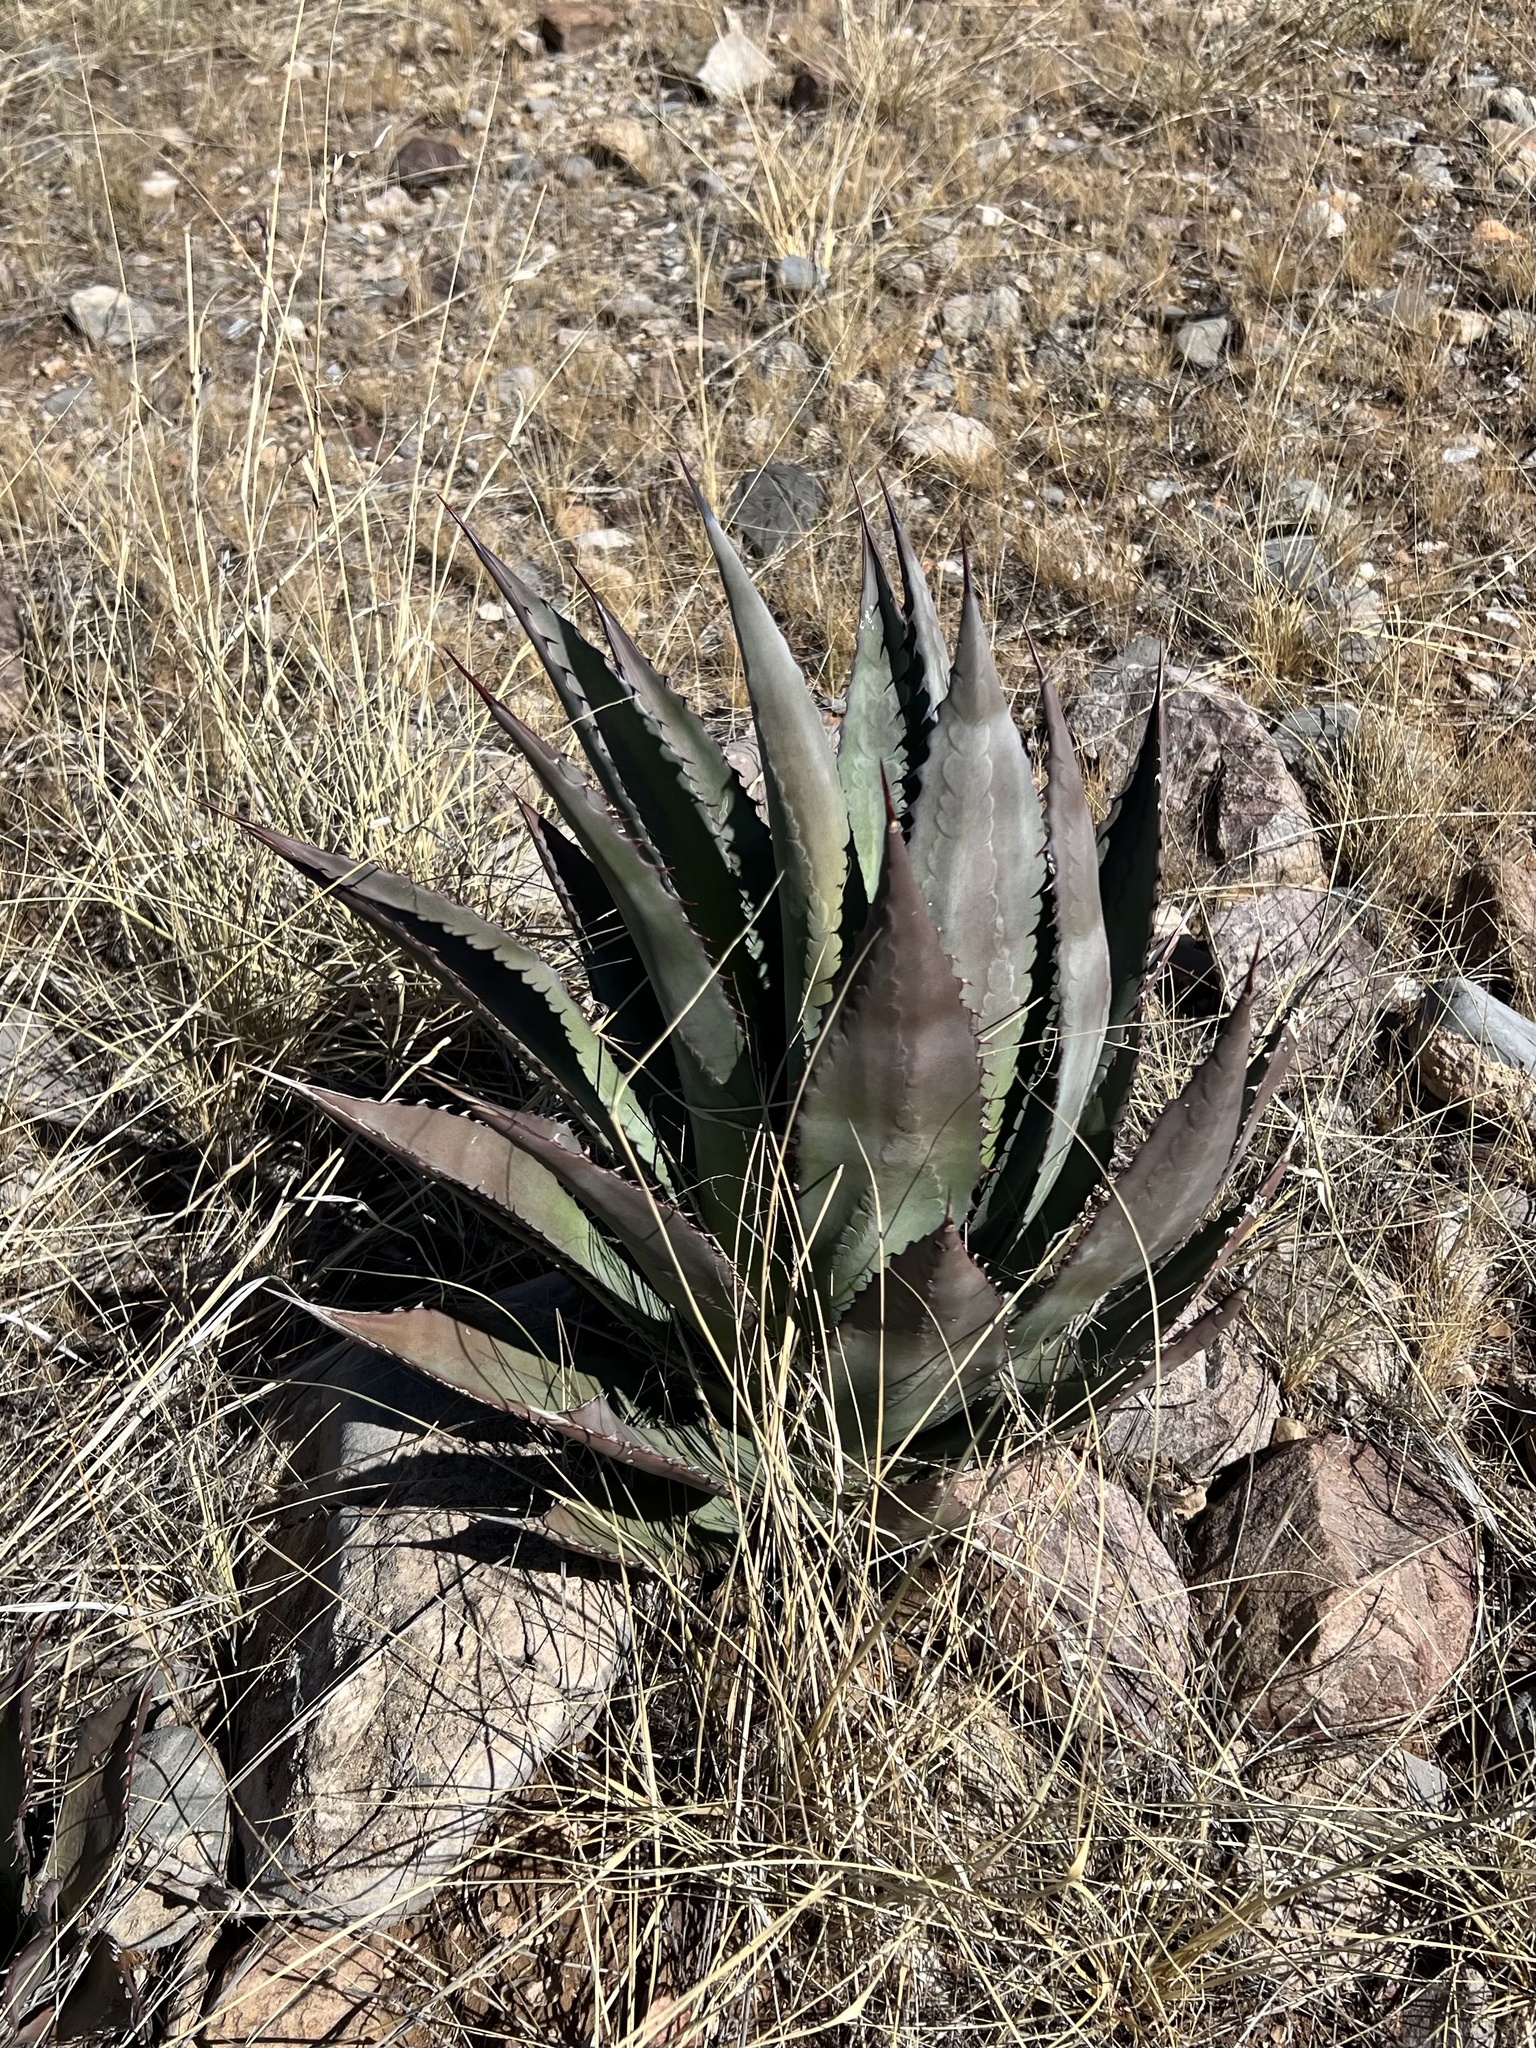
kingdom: Plantae
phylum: Tracheophyta
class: Liliopsida
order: Asparagales
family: Asparagaceae
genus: Agave
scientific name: Agave palmeri
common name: Palmer agave
